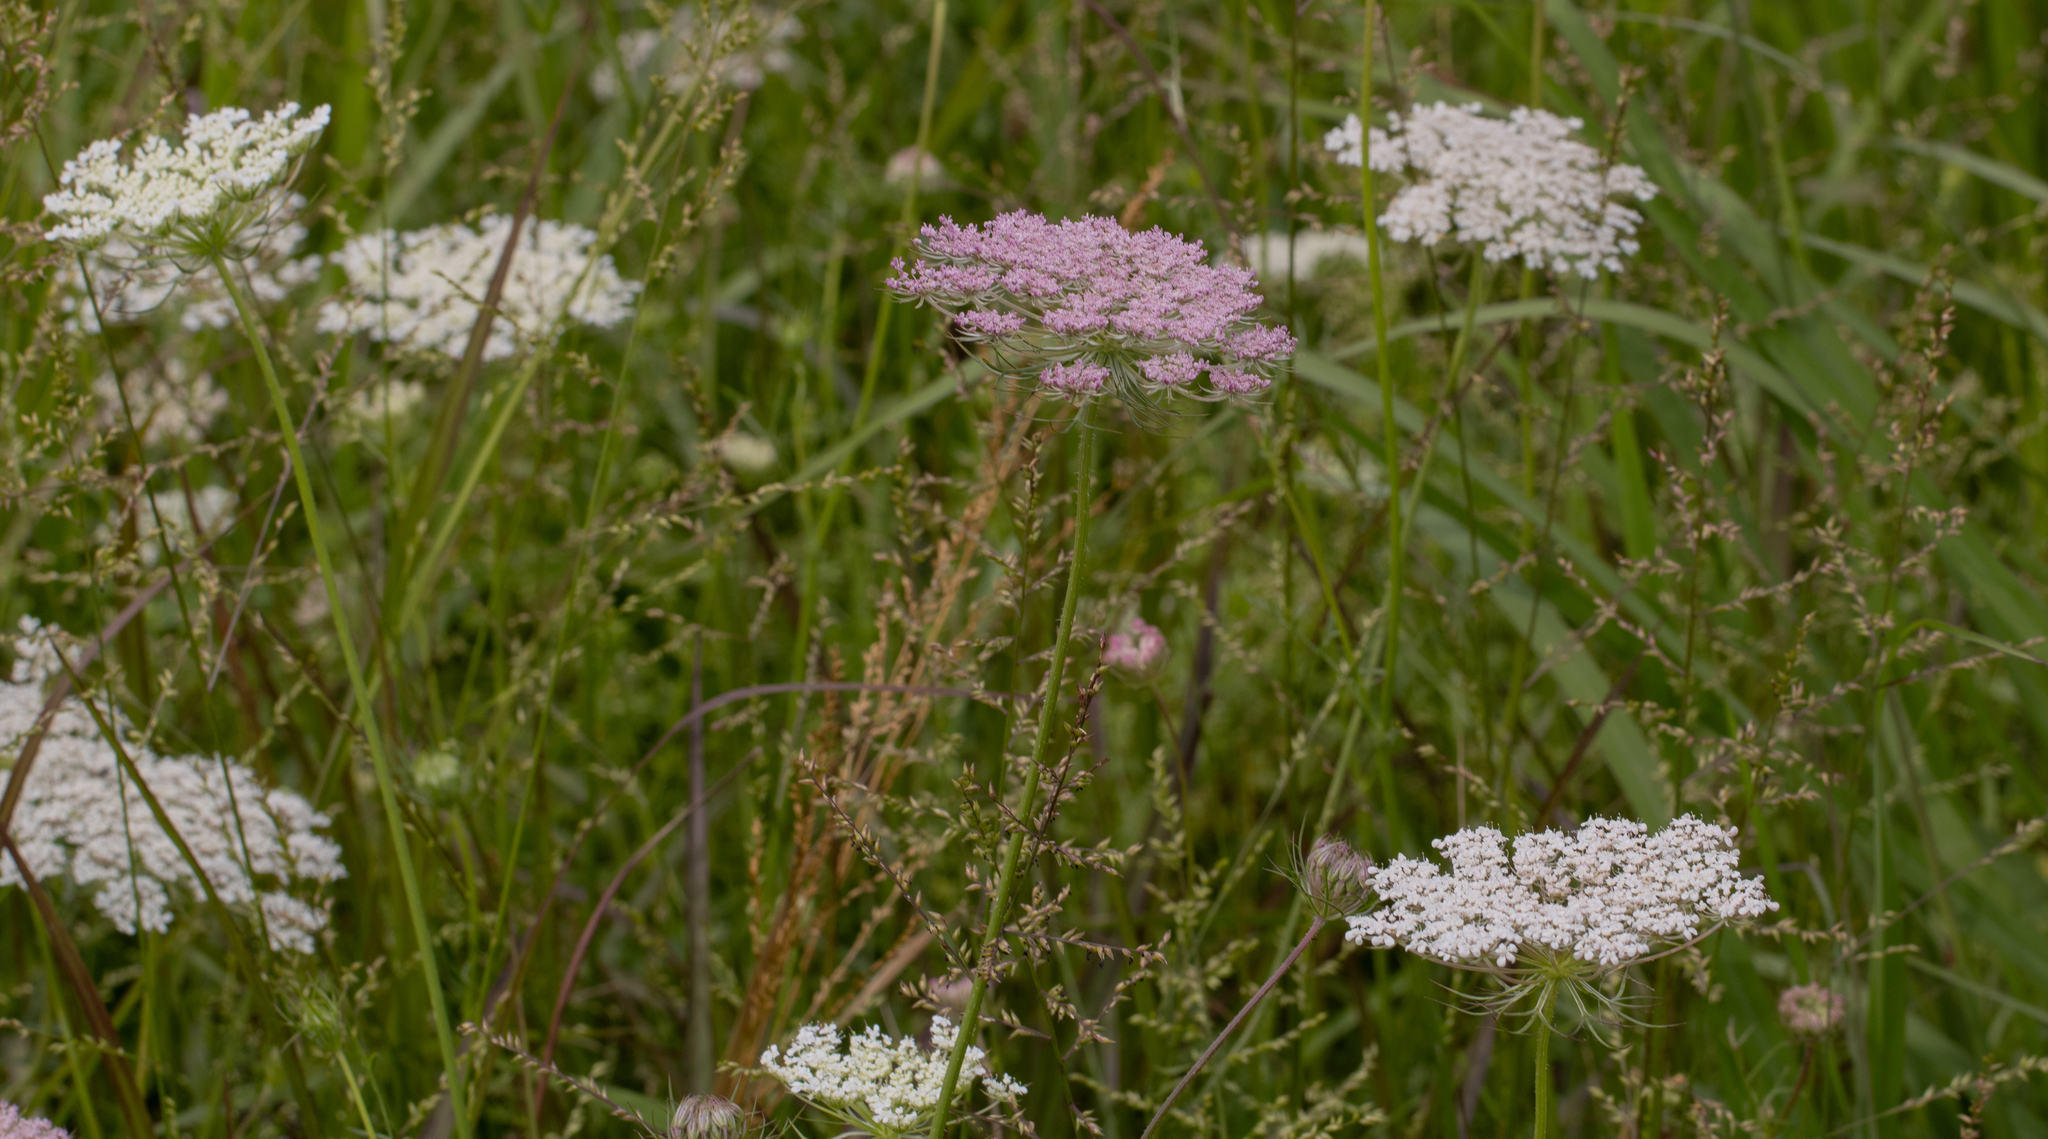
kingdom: Plantae
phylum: Tracheophyta
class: Magnoliopsida
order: Apiales
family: Apiaceae
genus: Daucus
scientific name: Daucus carota
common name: Wild carrot
